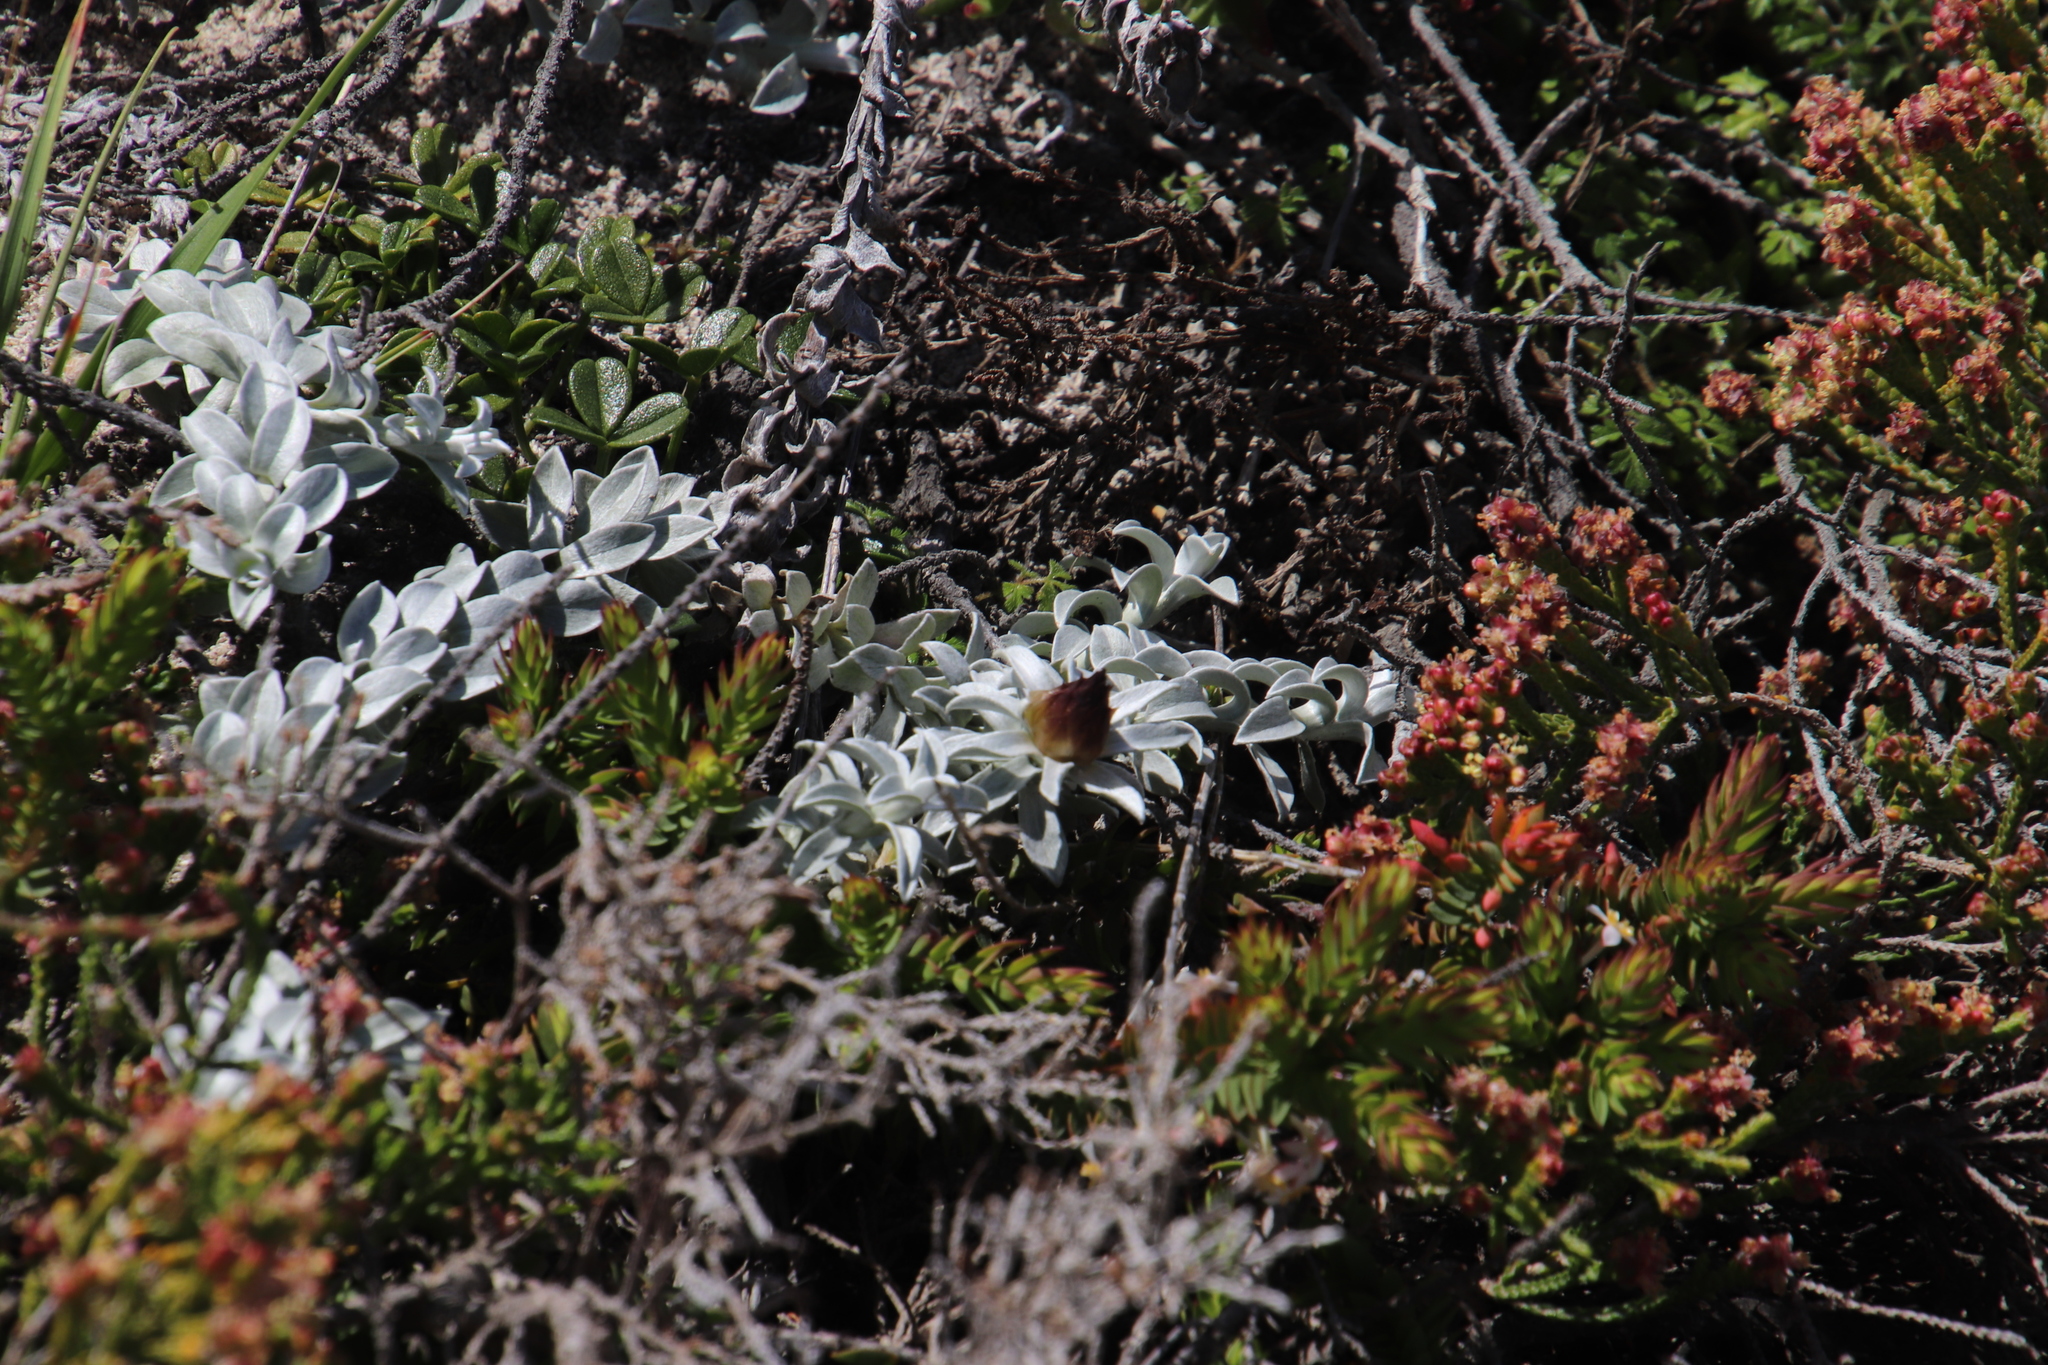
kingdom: Plantae
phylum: Tracheophyta
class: Magnoliopsida
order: Asterales
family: Asteraceae
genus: Helichrysum
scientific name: Helichrysum retortum
